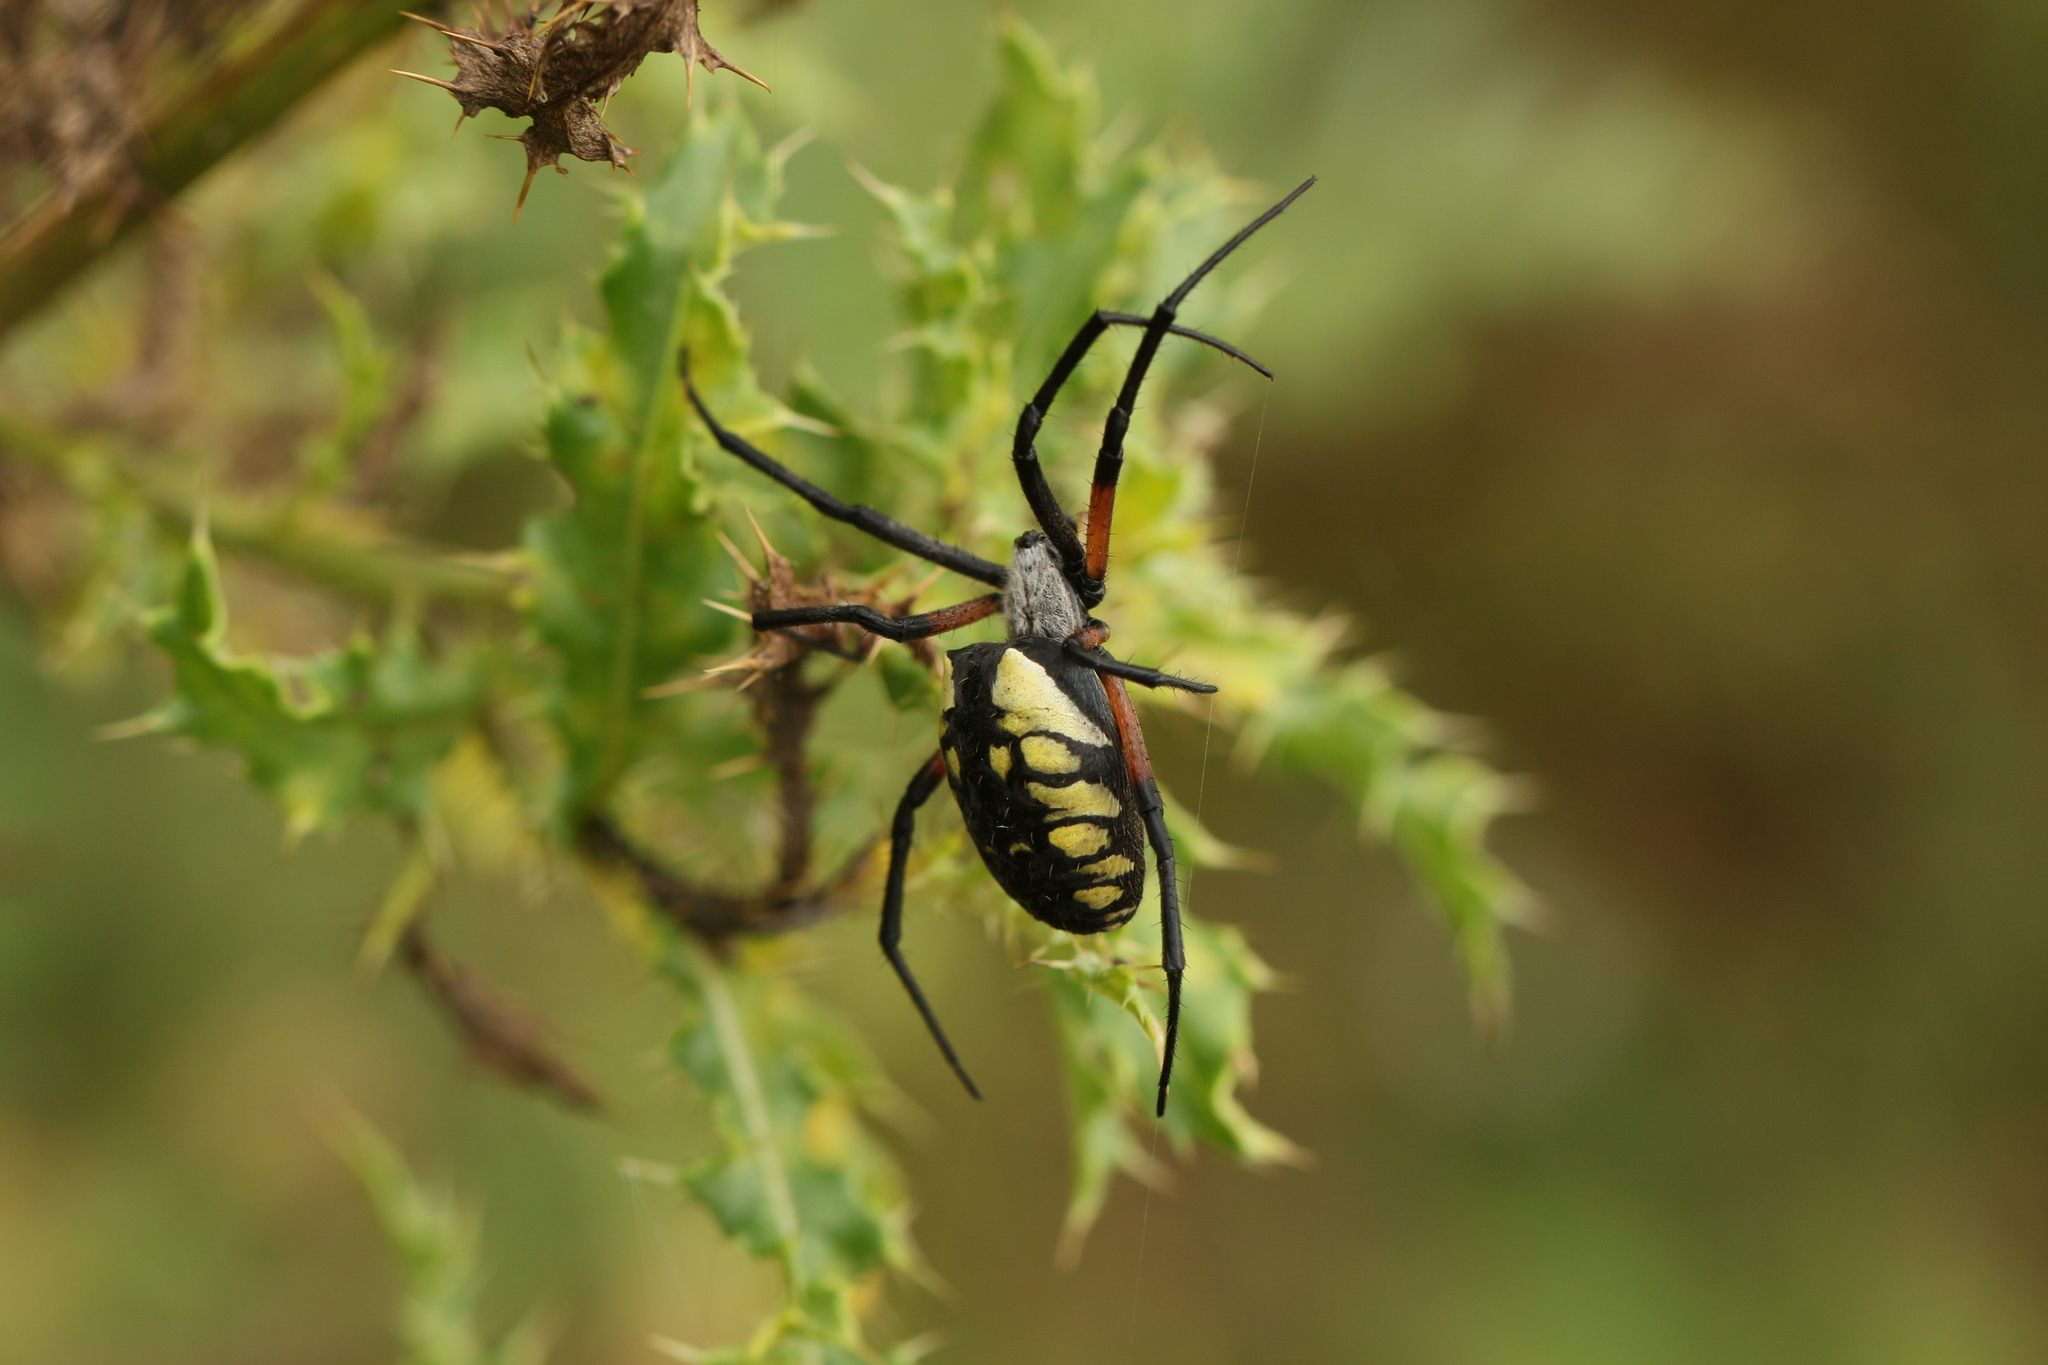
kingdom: Animalia
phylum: Arthropoda
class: Arachnida
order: Araneae
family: Araneidae
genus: Argiope
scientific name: Argiope aurantia
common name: Orb weavers
